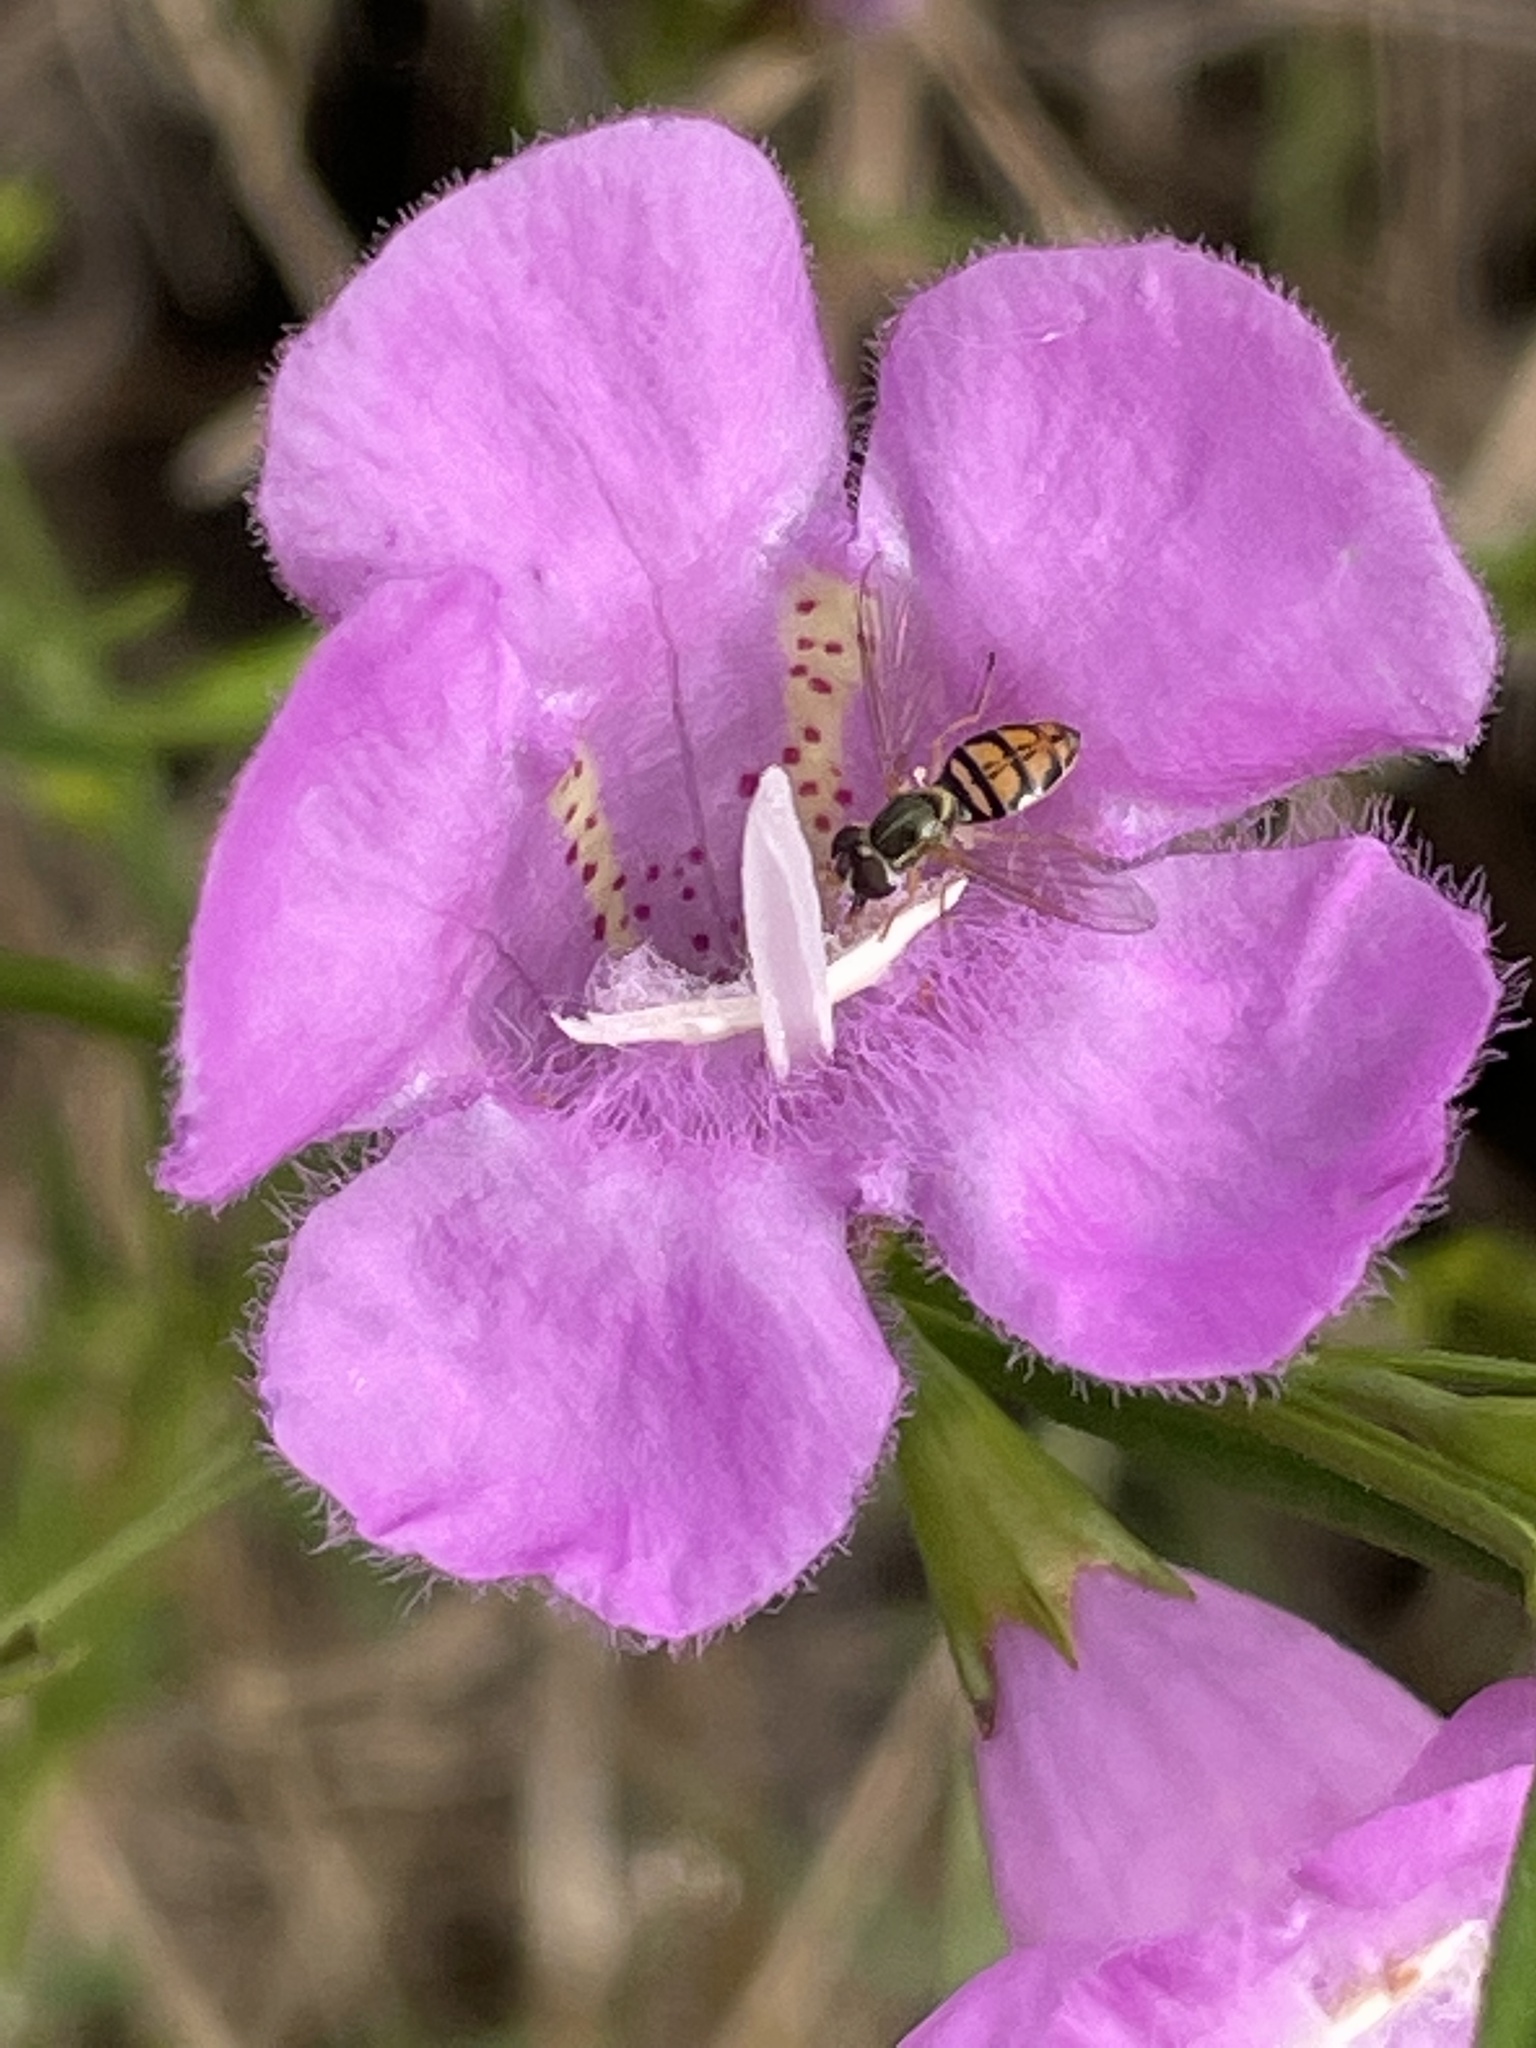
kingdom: Animalia
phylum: Arthropoda
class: Insecta
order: Diptera
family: Syrphidae
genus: Toxomerus
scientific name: Toxomerus marginatus
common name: Syrphid fly
